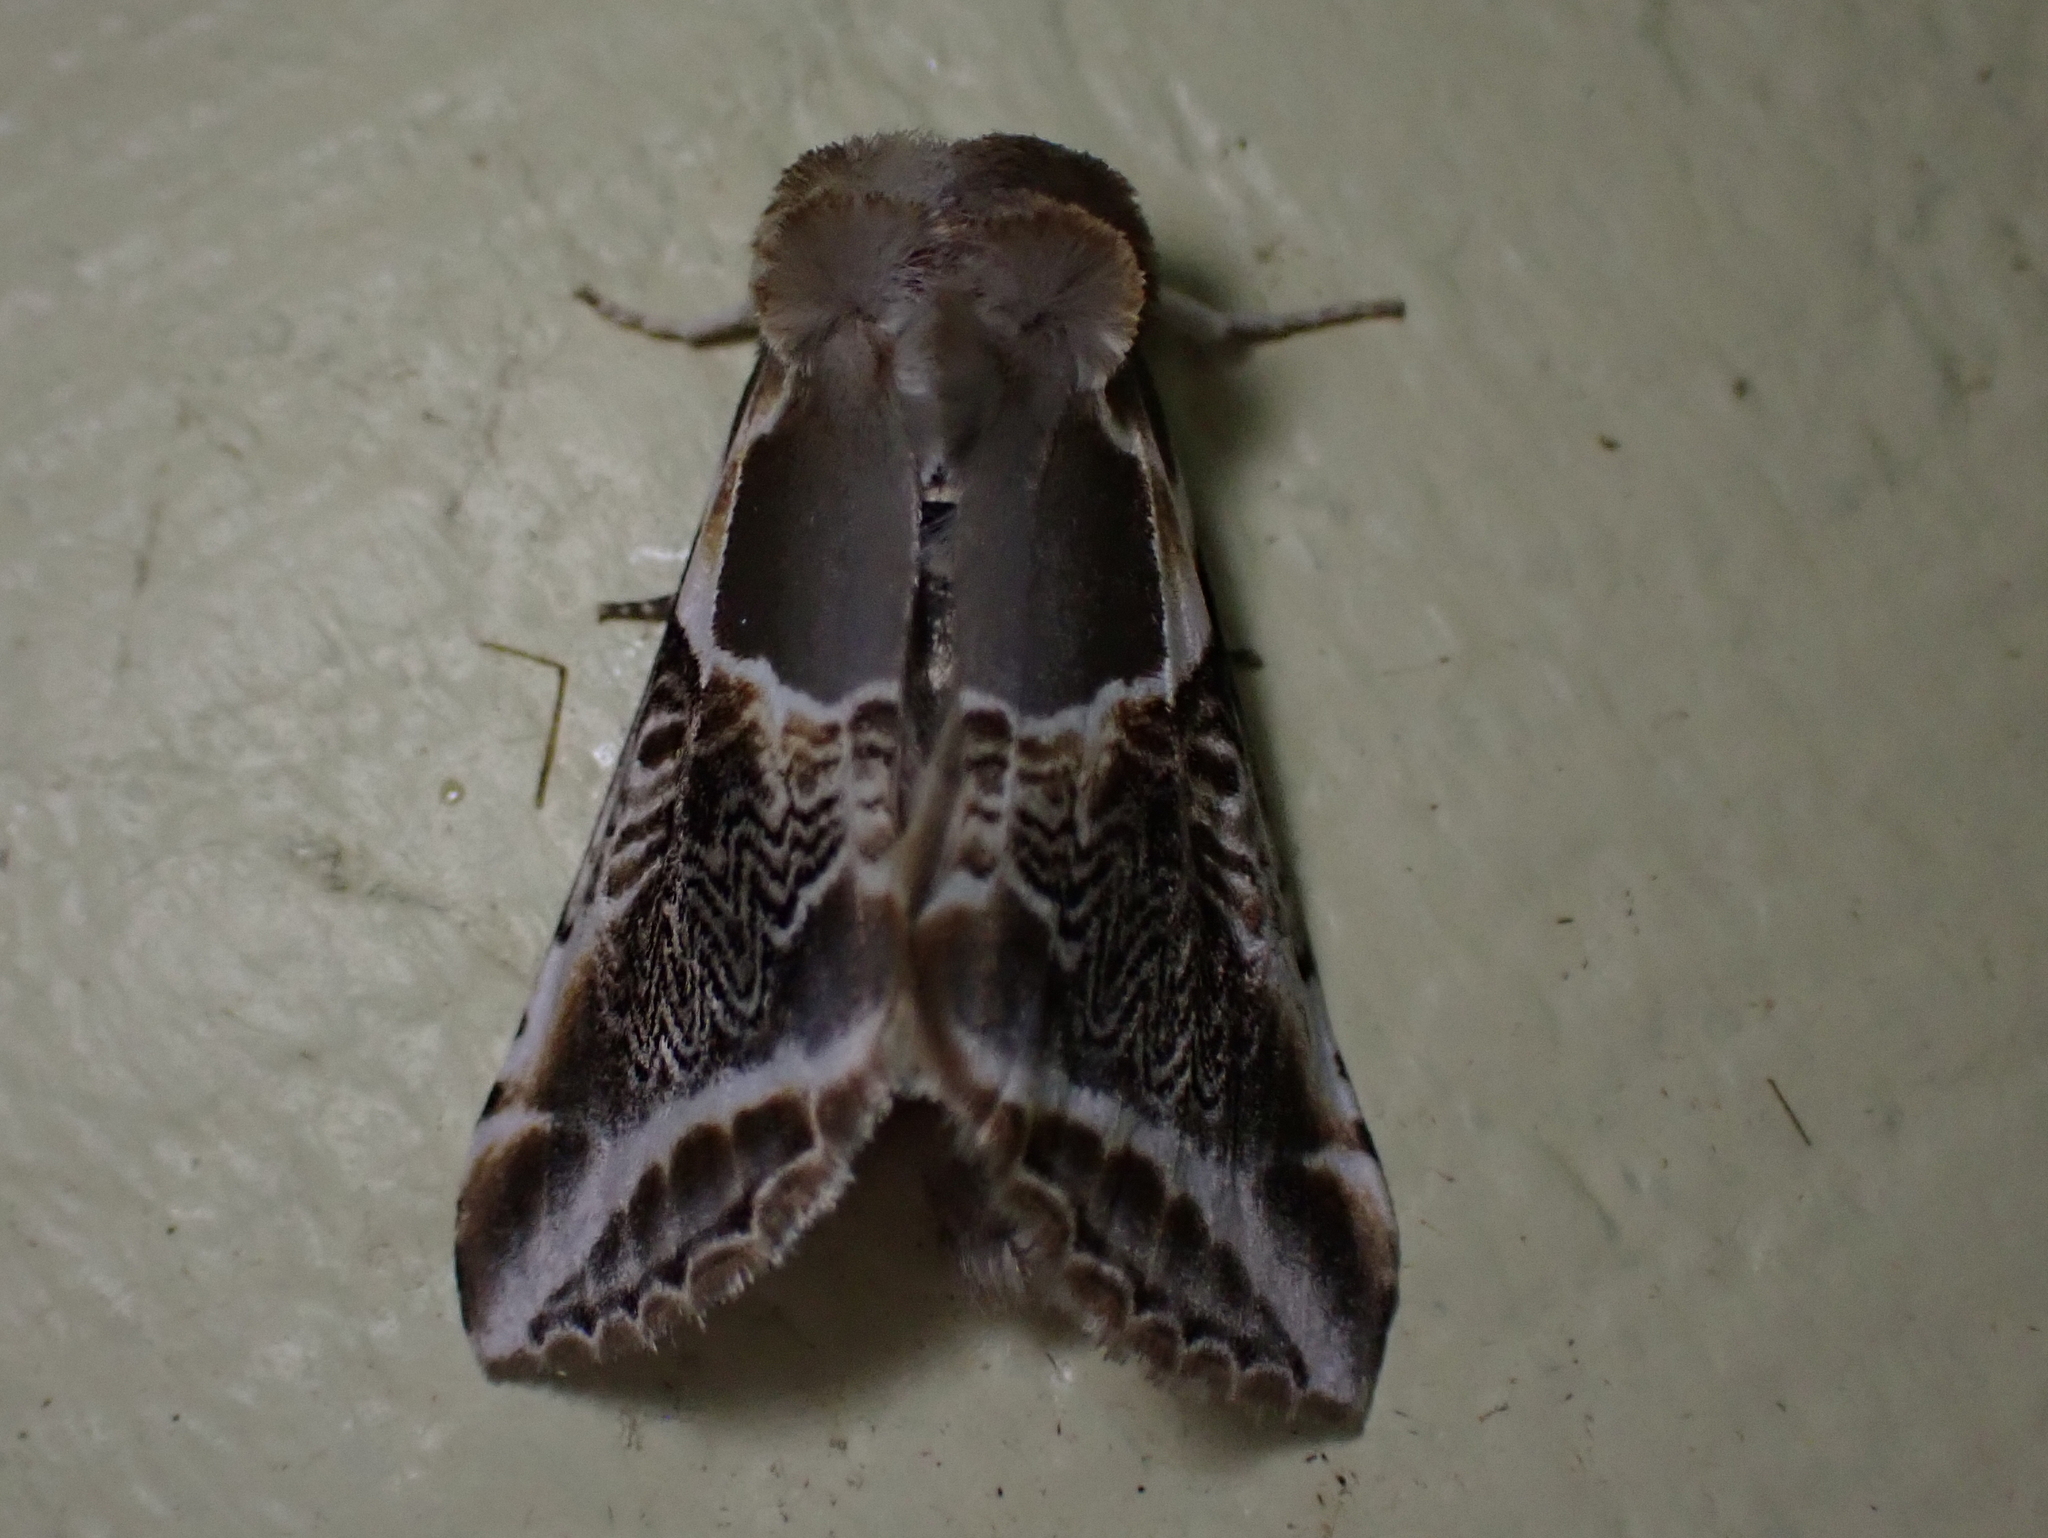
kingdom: Animalia
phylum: Arthropoda
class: Insecta
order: Lepidoptera
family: Drepanidae
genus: Habrosyne
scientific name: Habrosyne scripta
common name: Lettered habrosyne moth
